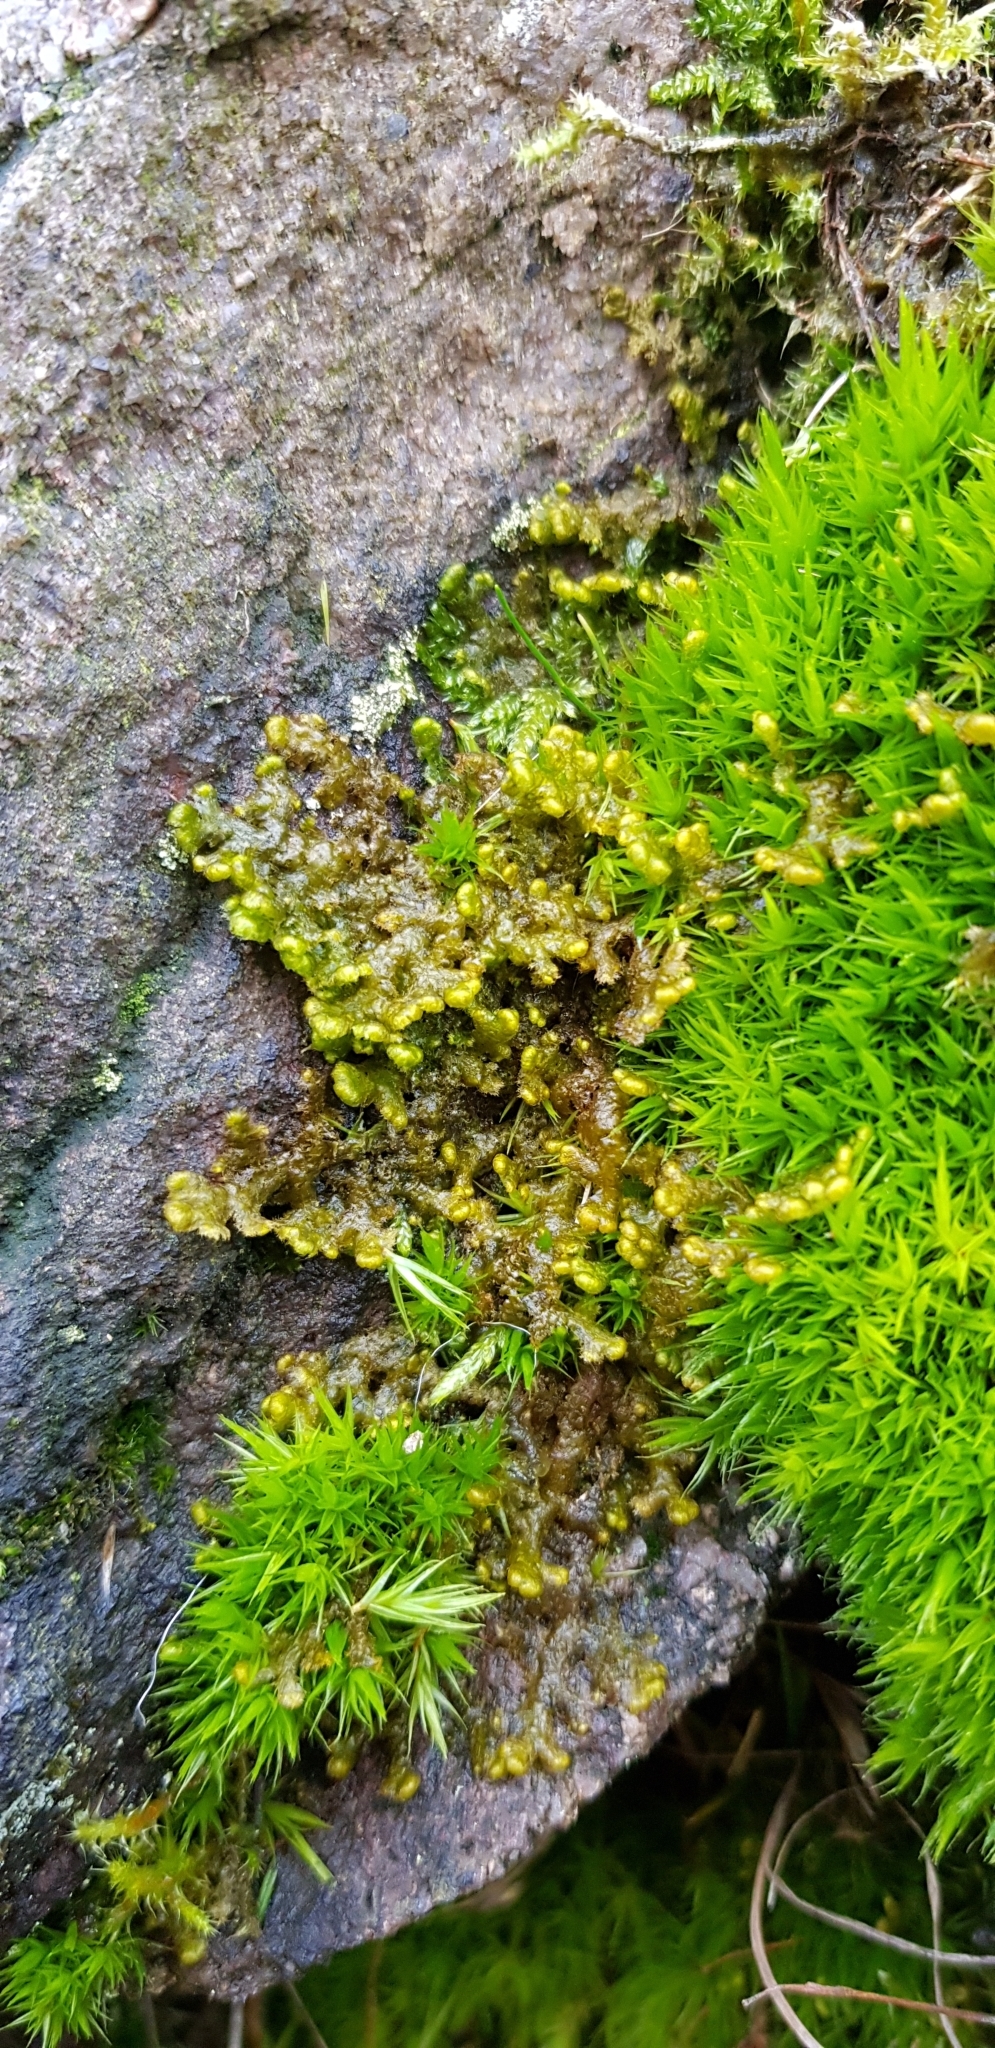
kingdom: Plantae
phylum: Bryophyta
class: Bryopsida
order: Dicranales
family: Dicranaceae
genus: Dicranum
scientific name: Dicranum scoparium
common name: Broom fork-moss
